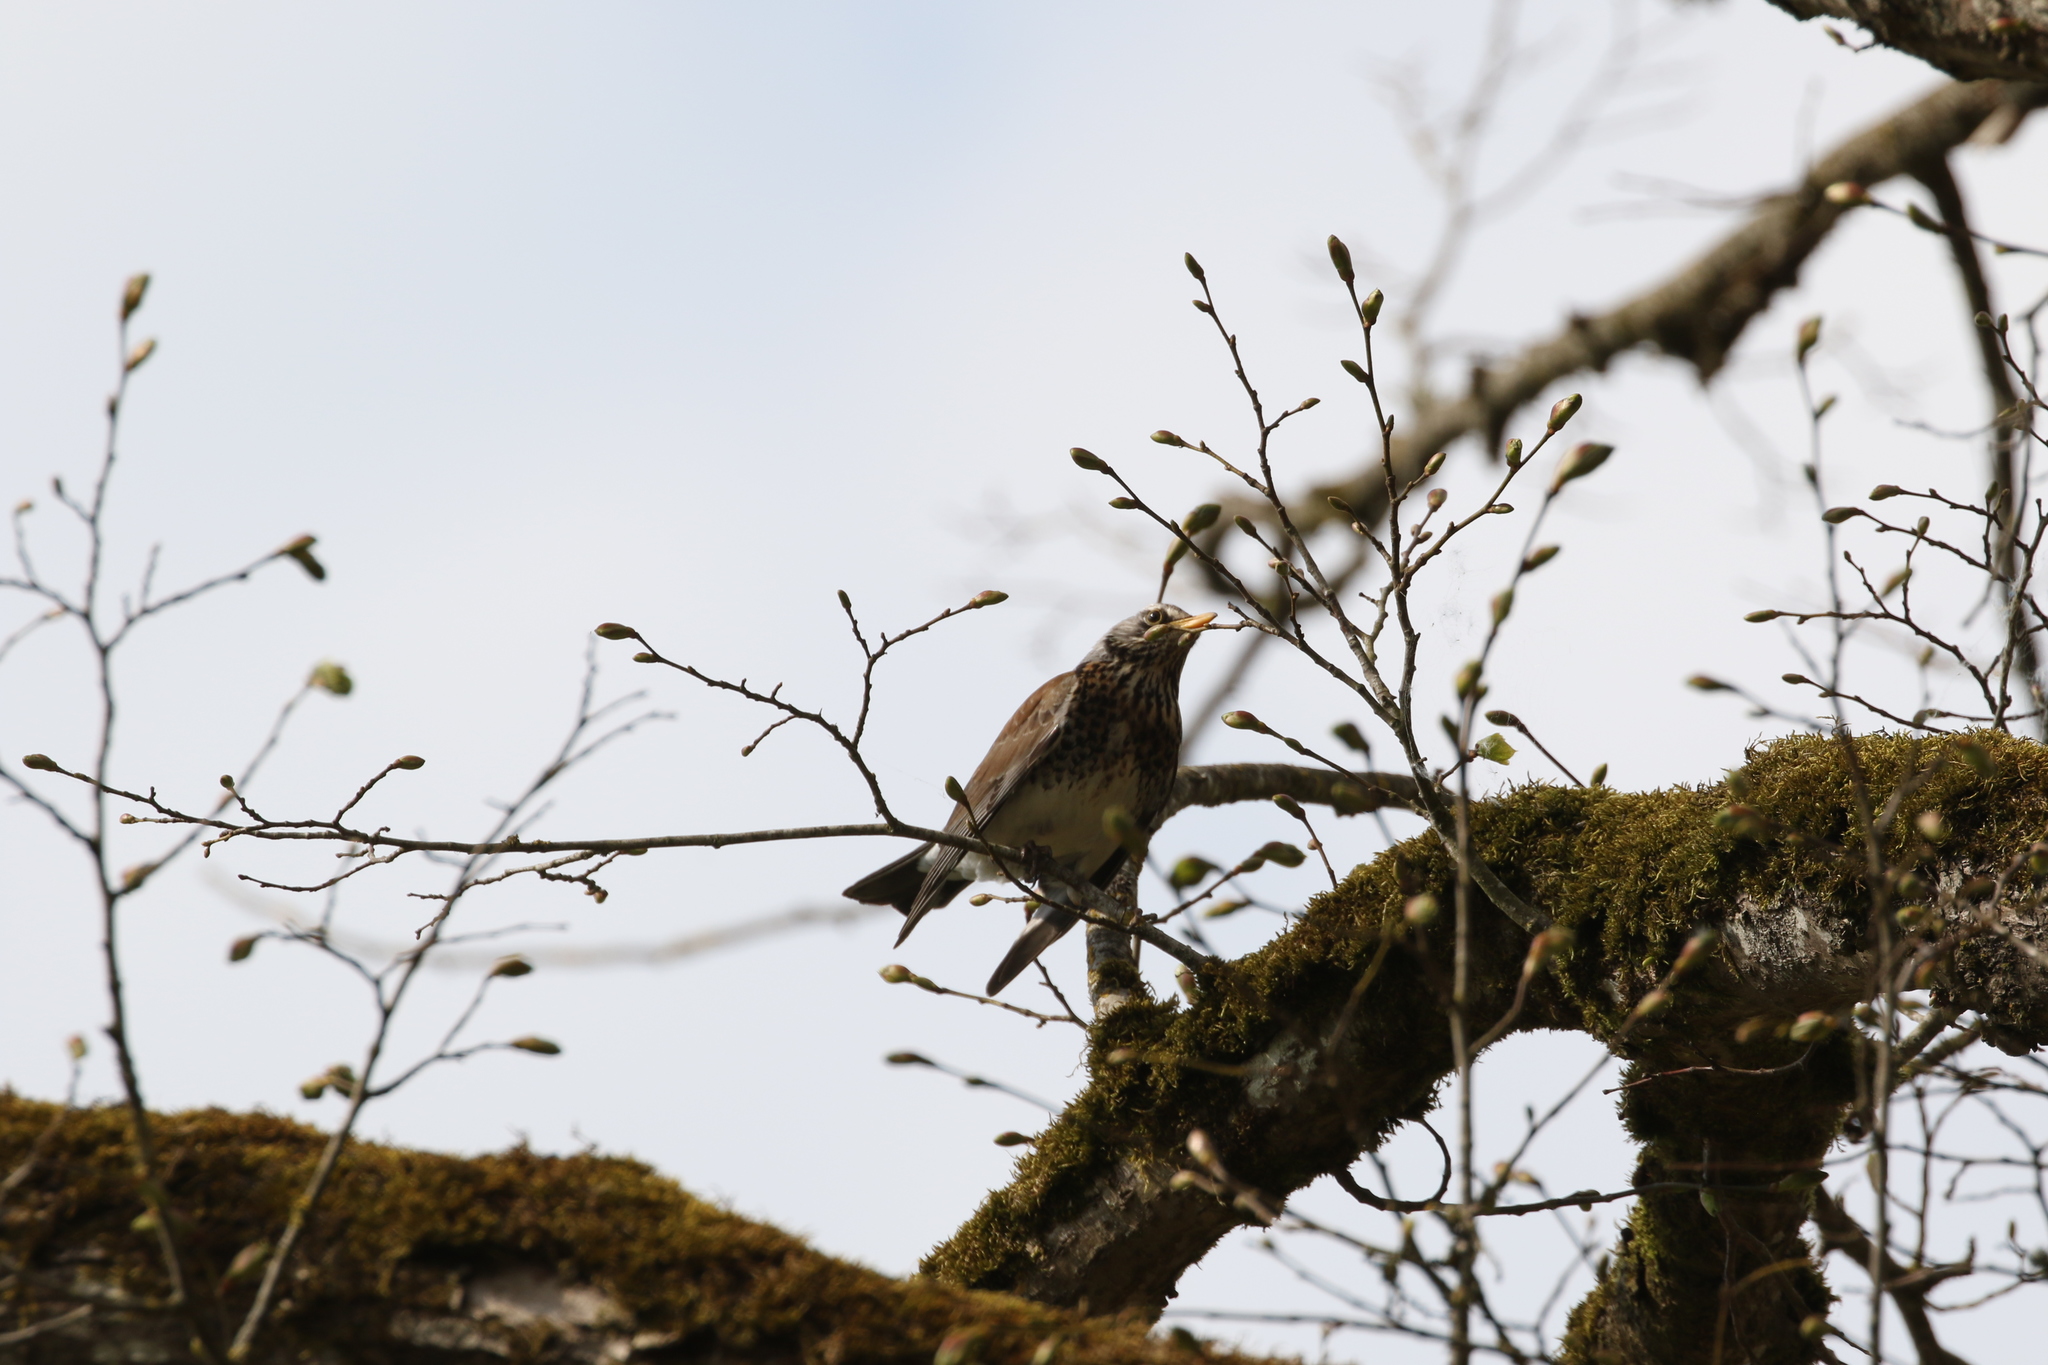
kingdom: Animalia
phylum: Chordata
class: Aves
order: Passeriformes
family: Turdidae
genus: Turdus
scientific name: Turdus pilaris
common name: Fieldfare
